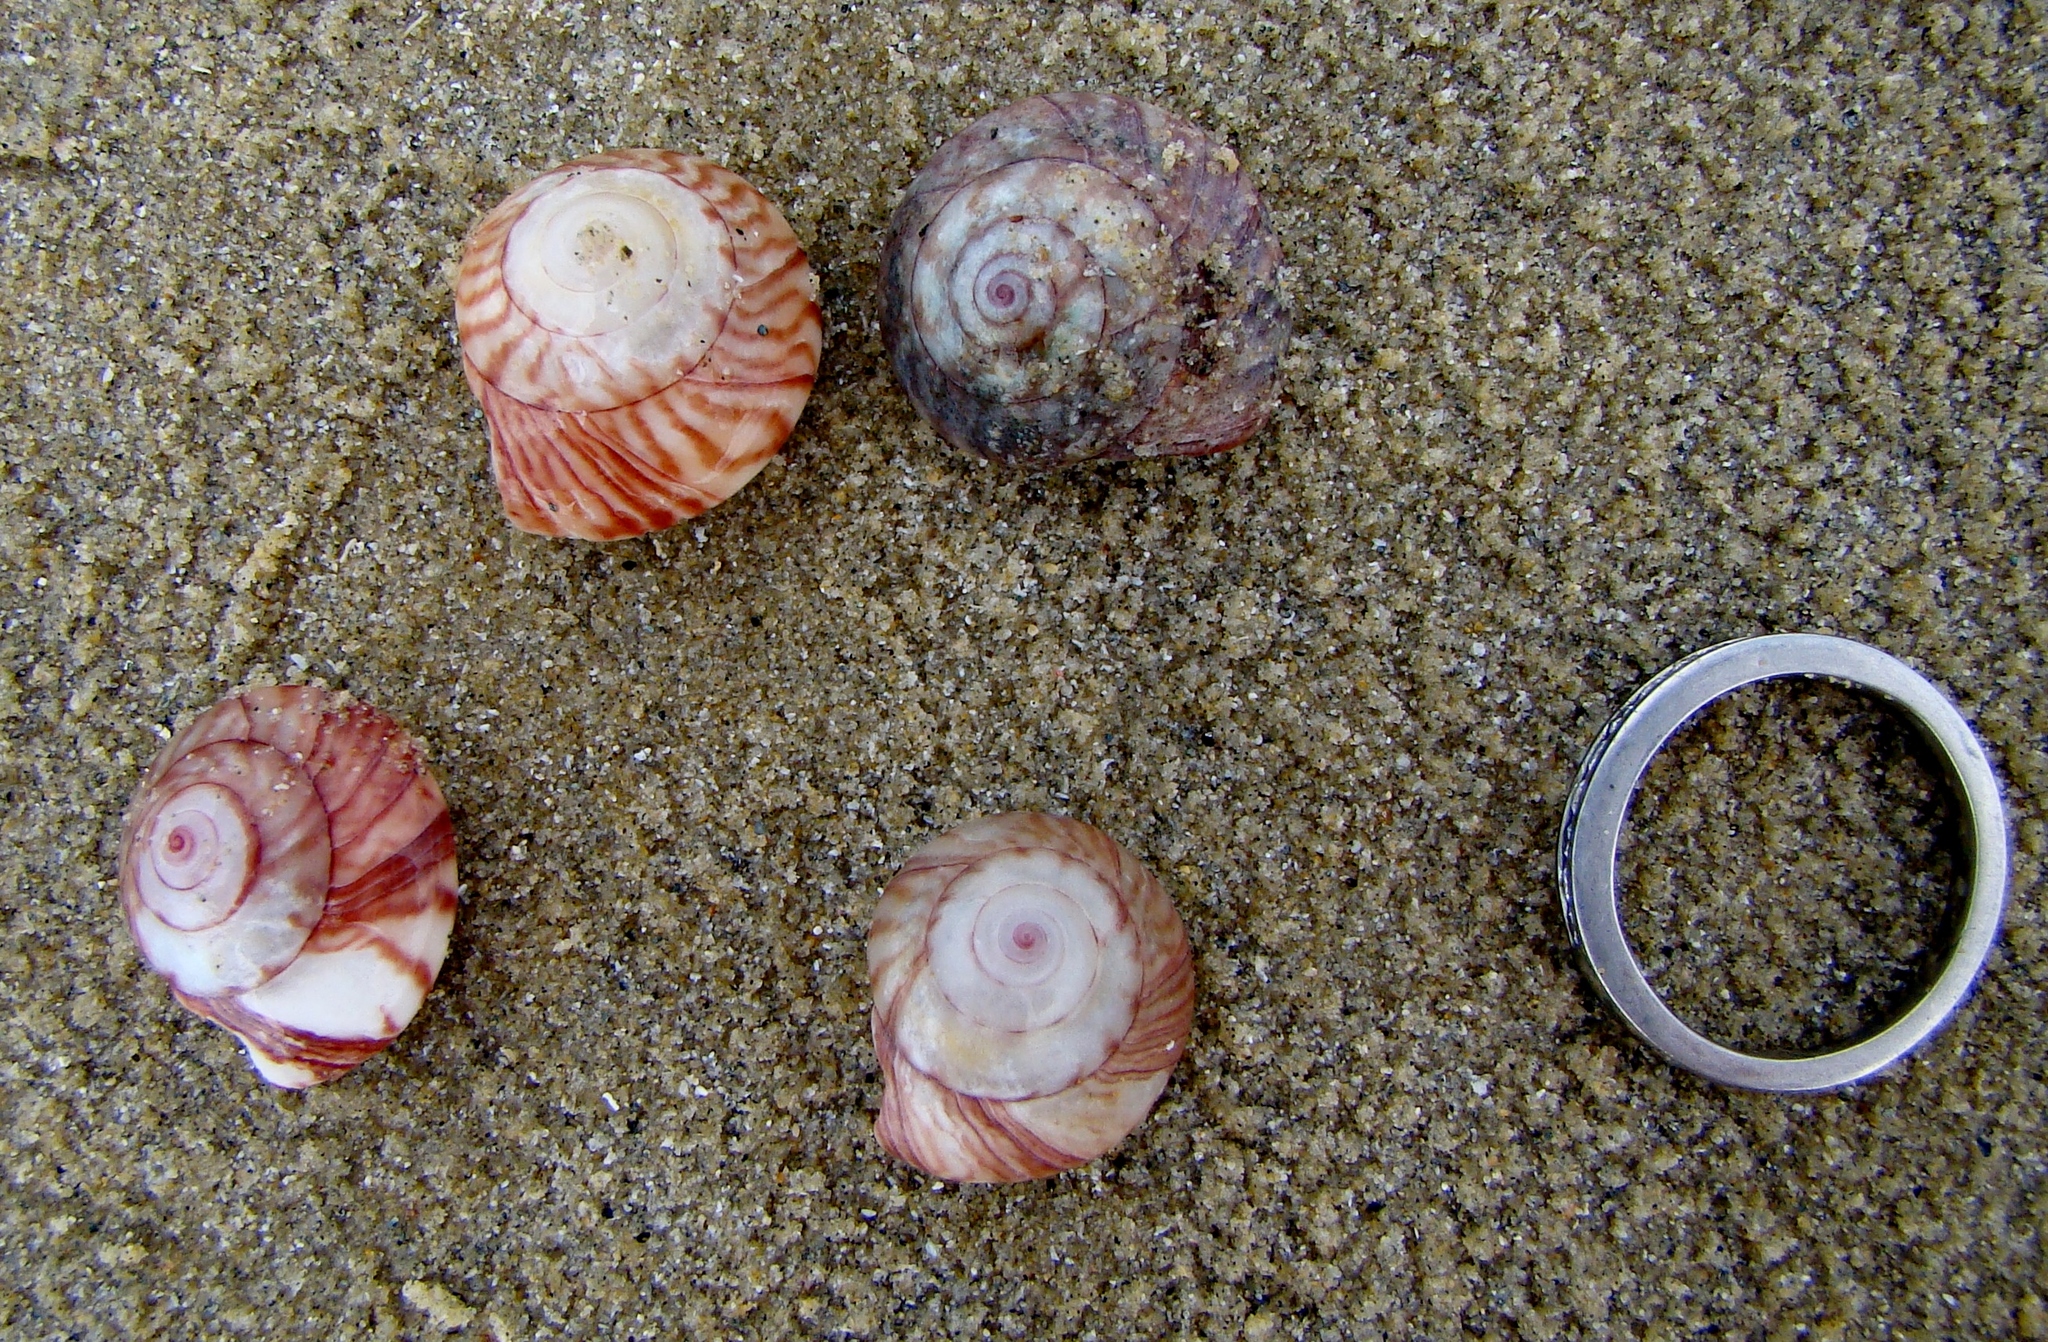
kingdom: Animalia
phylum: Mollusca
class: Gastropoda
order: Trochida
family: Trochidae
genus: Zethalia
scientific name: Zethalia zelandica
